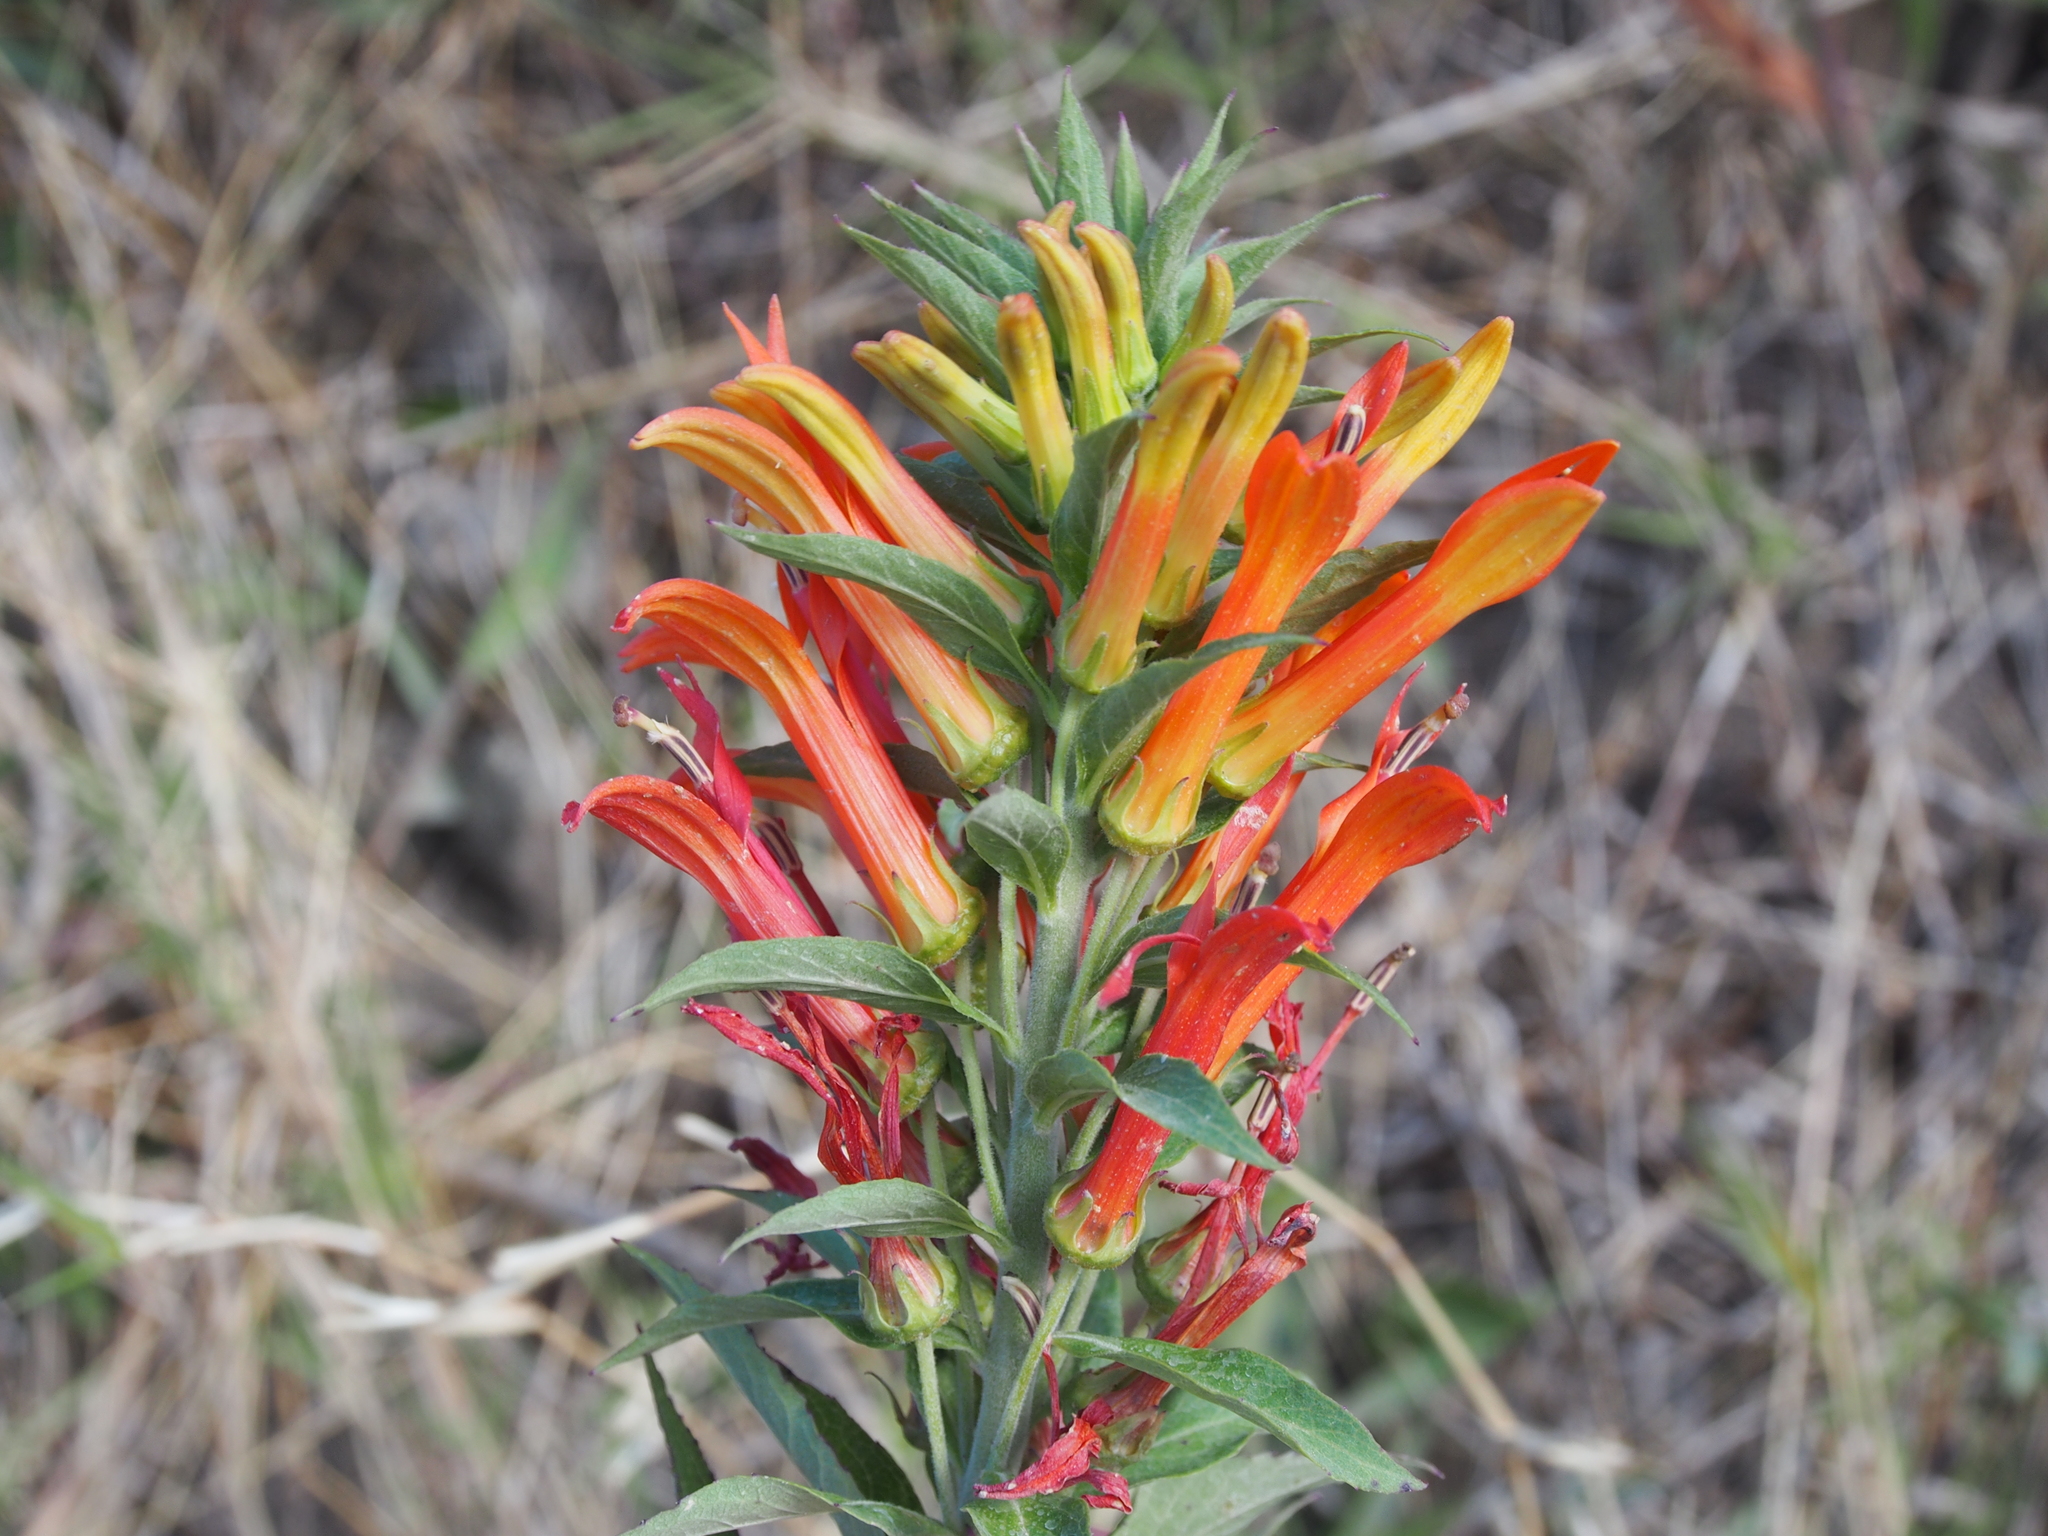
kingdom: Plantae
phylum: Tracheophyta
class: Magnoliopsida
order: Asterales
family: Campanulaceae
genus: Lobelia
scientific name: Lobelia laxiflora
